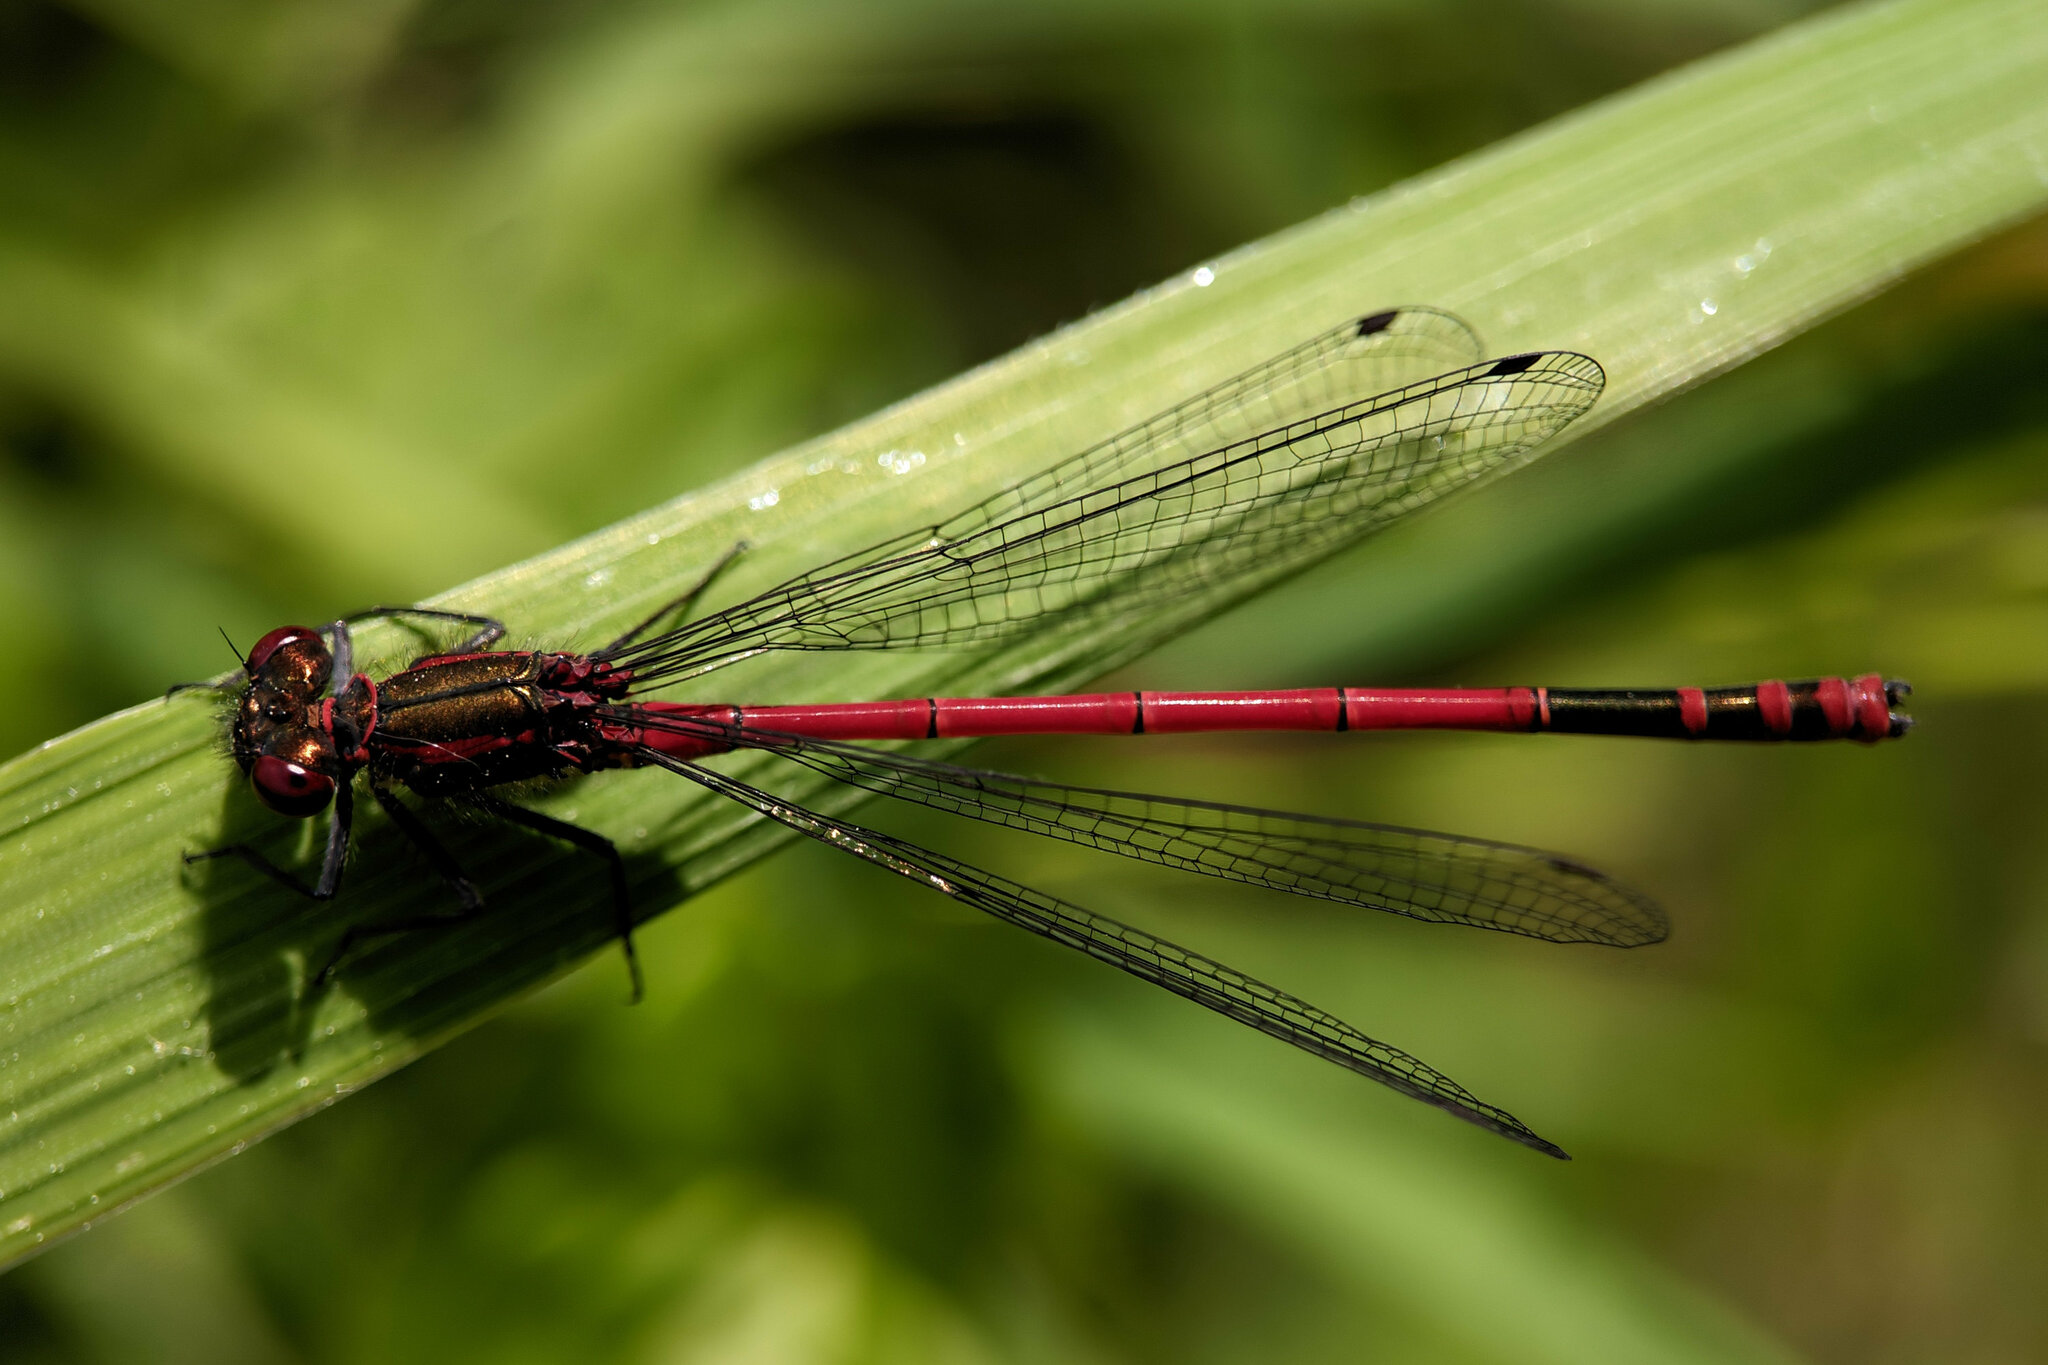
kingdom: Animalia
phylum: Arthropoda
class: Insecta
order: Odonata
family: Coenagrionidae
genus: Pyrrhosoma
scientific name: Pyrrhosoma nymphula
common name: Large red damsel
